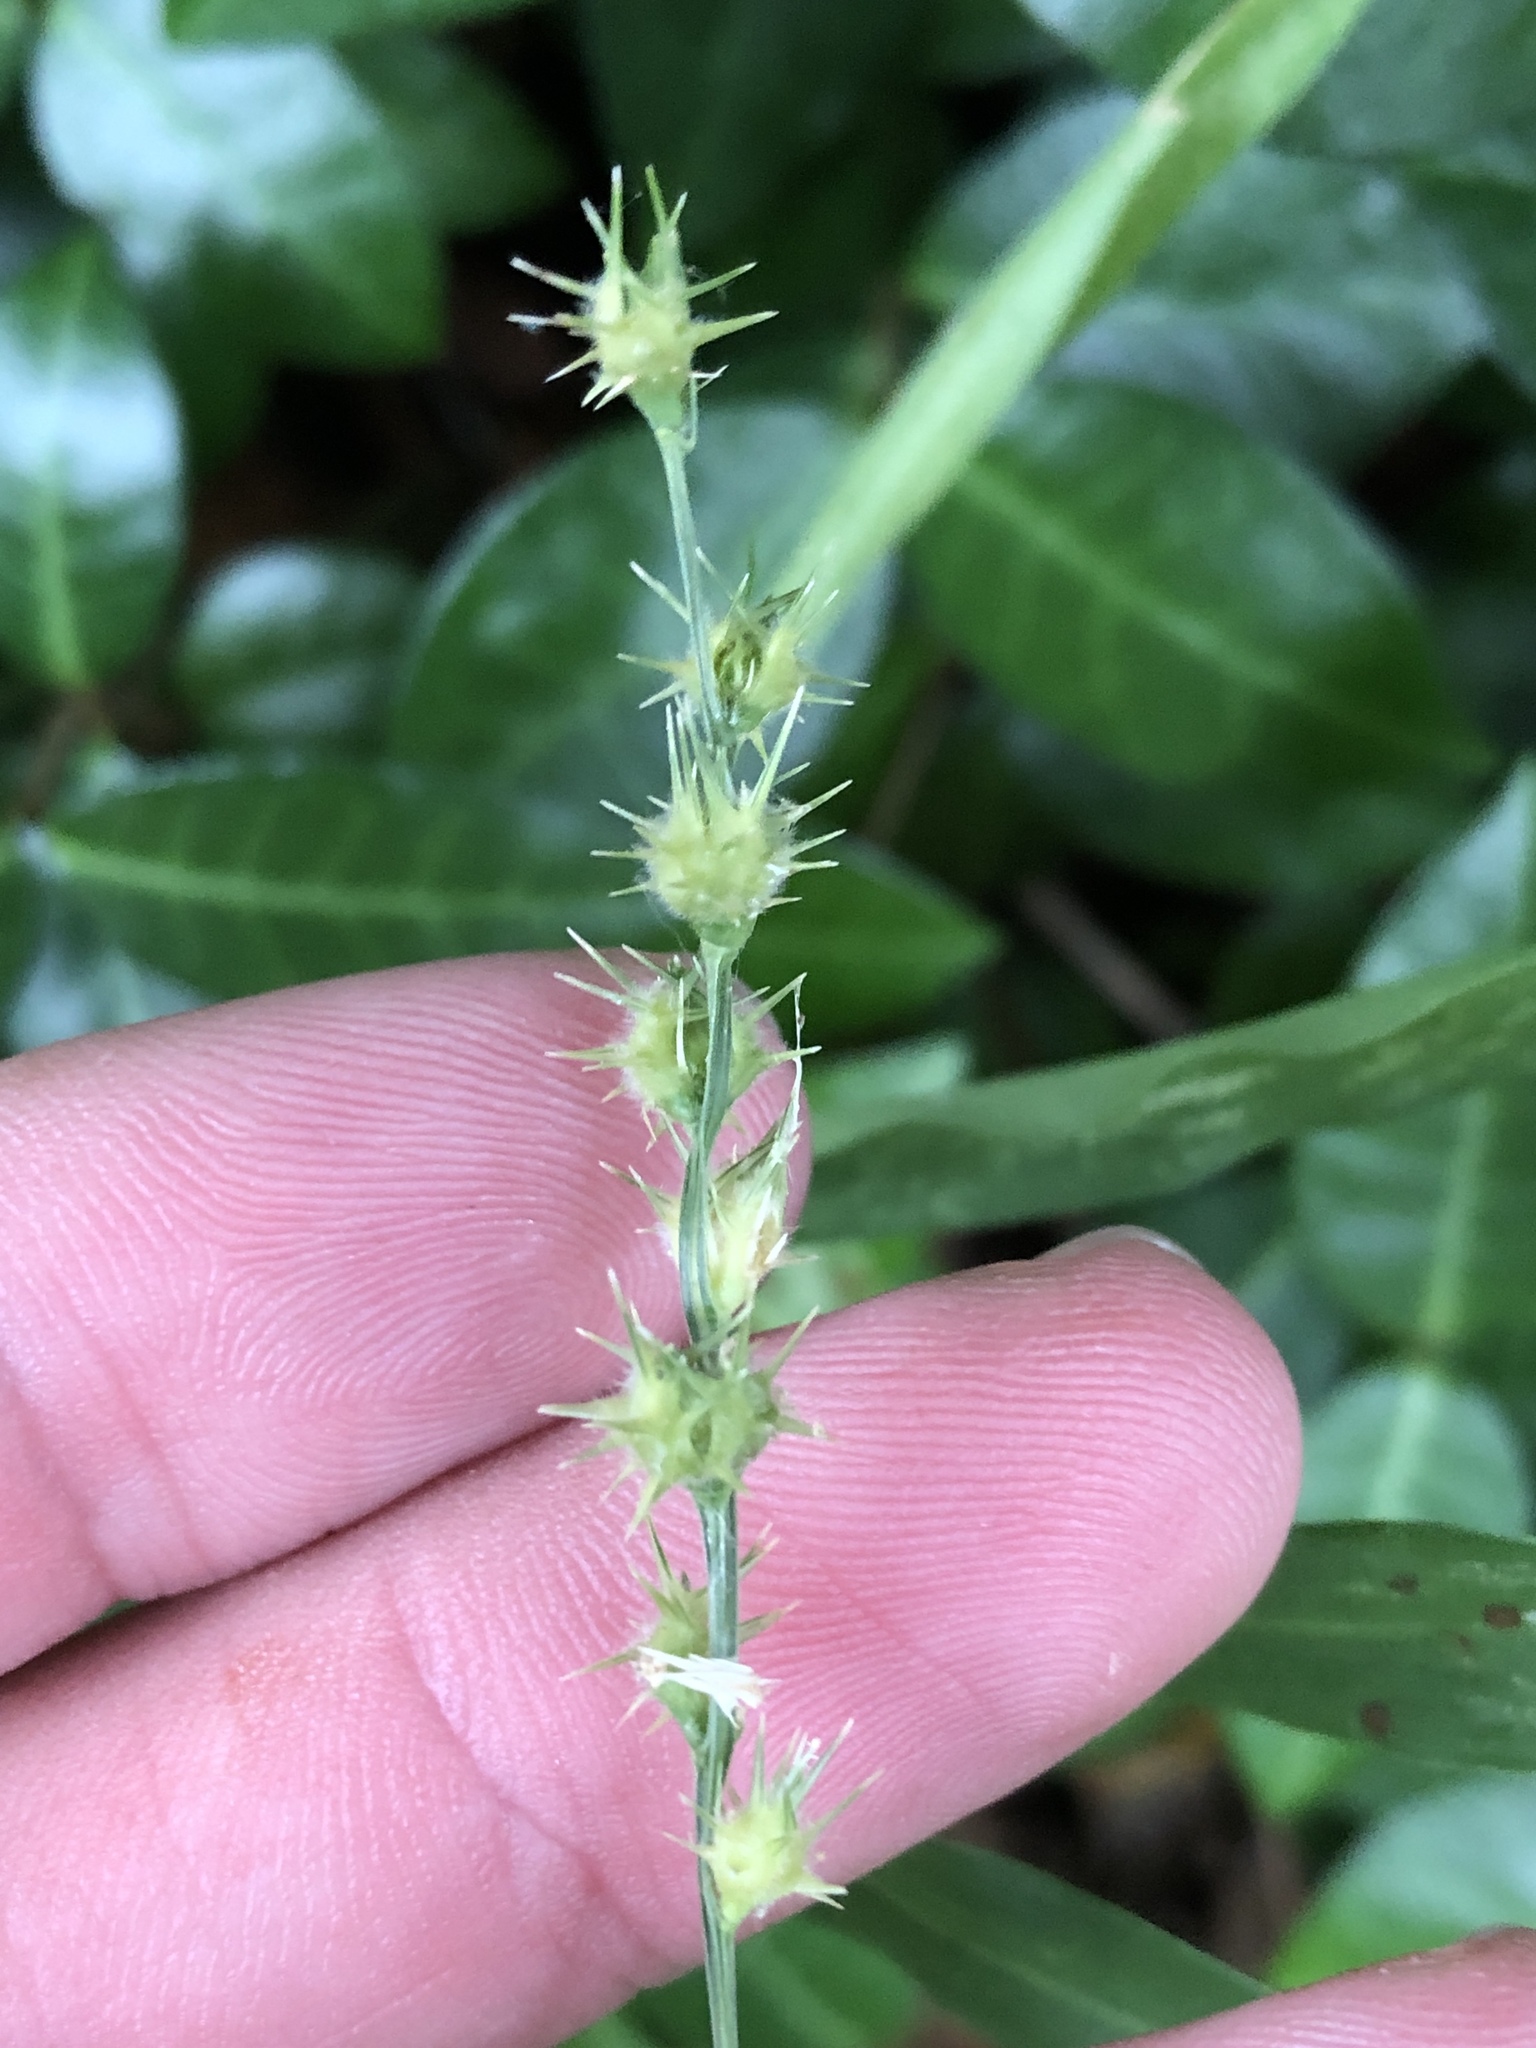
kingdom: Plantae
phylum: Tracheophyta
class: Liliopsida
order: Poales
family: Poaceae
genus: Cenchrus
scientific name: Cenchrus spinifex
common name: Coast sandbur
